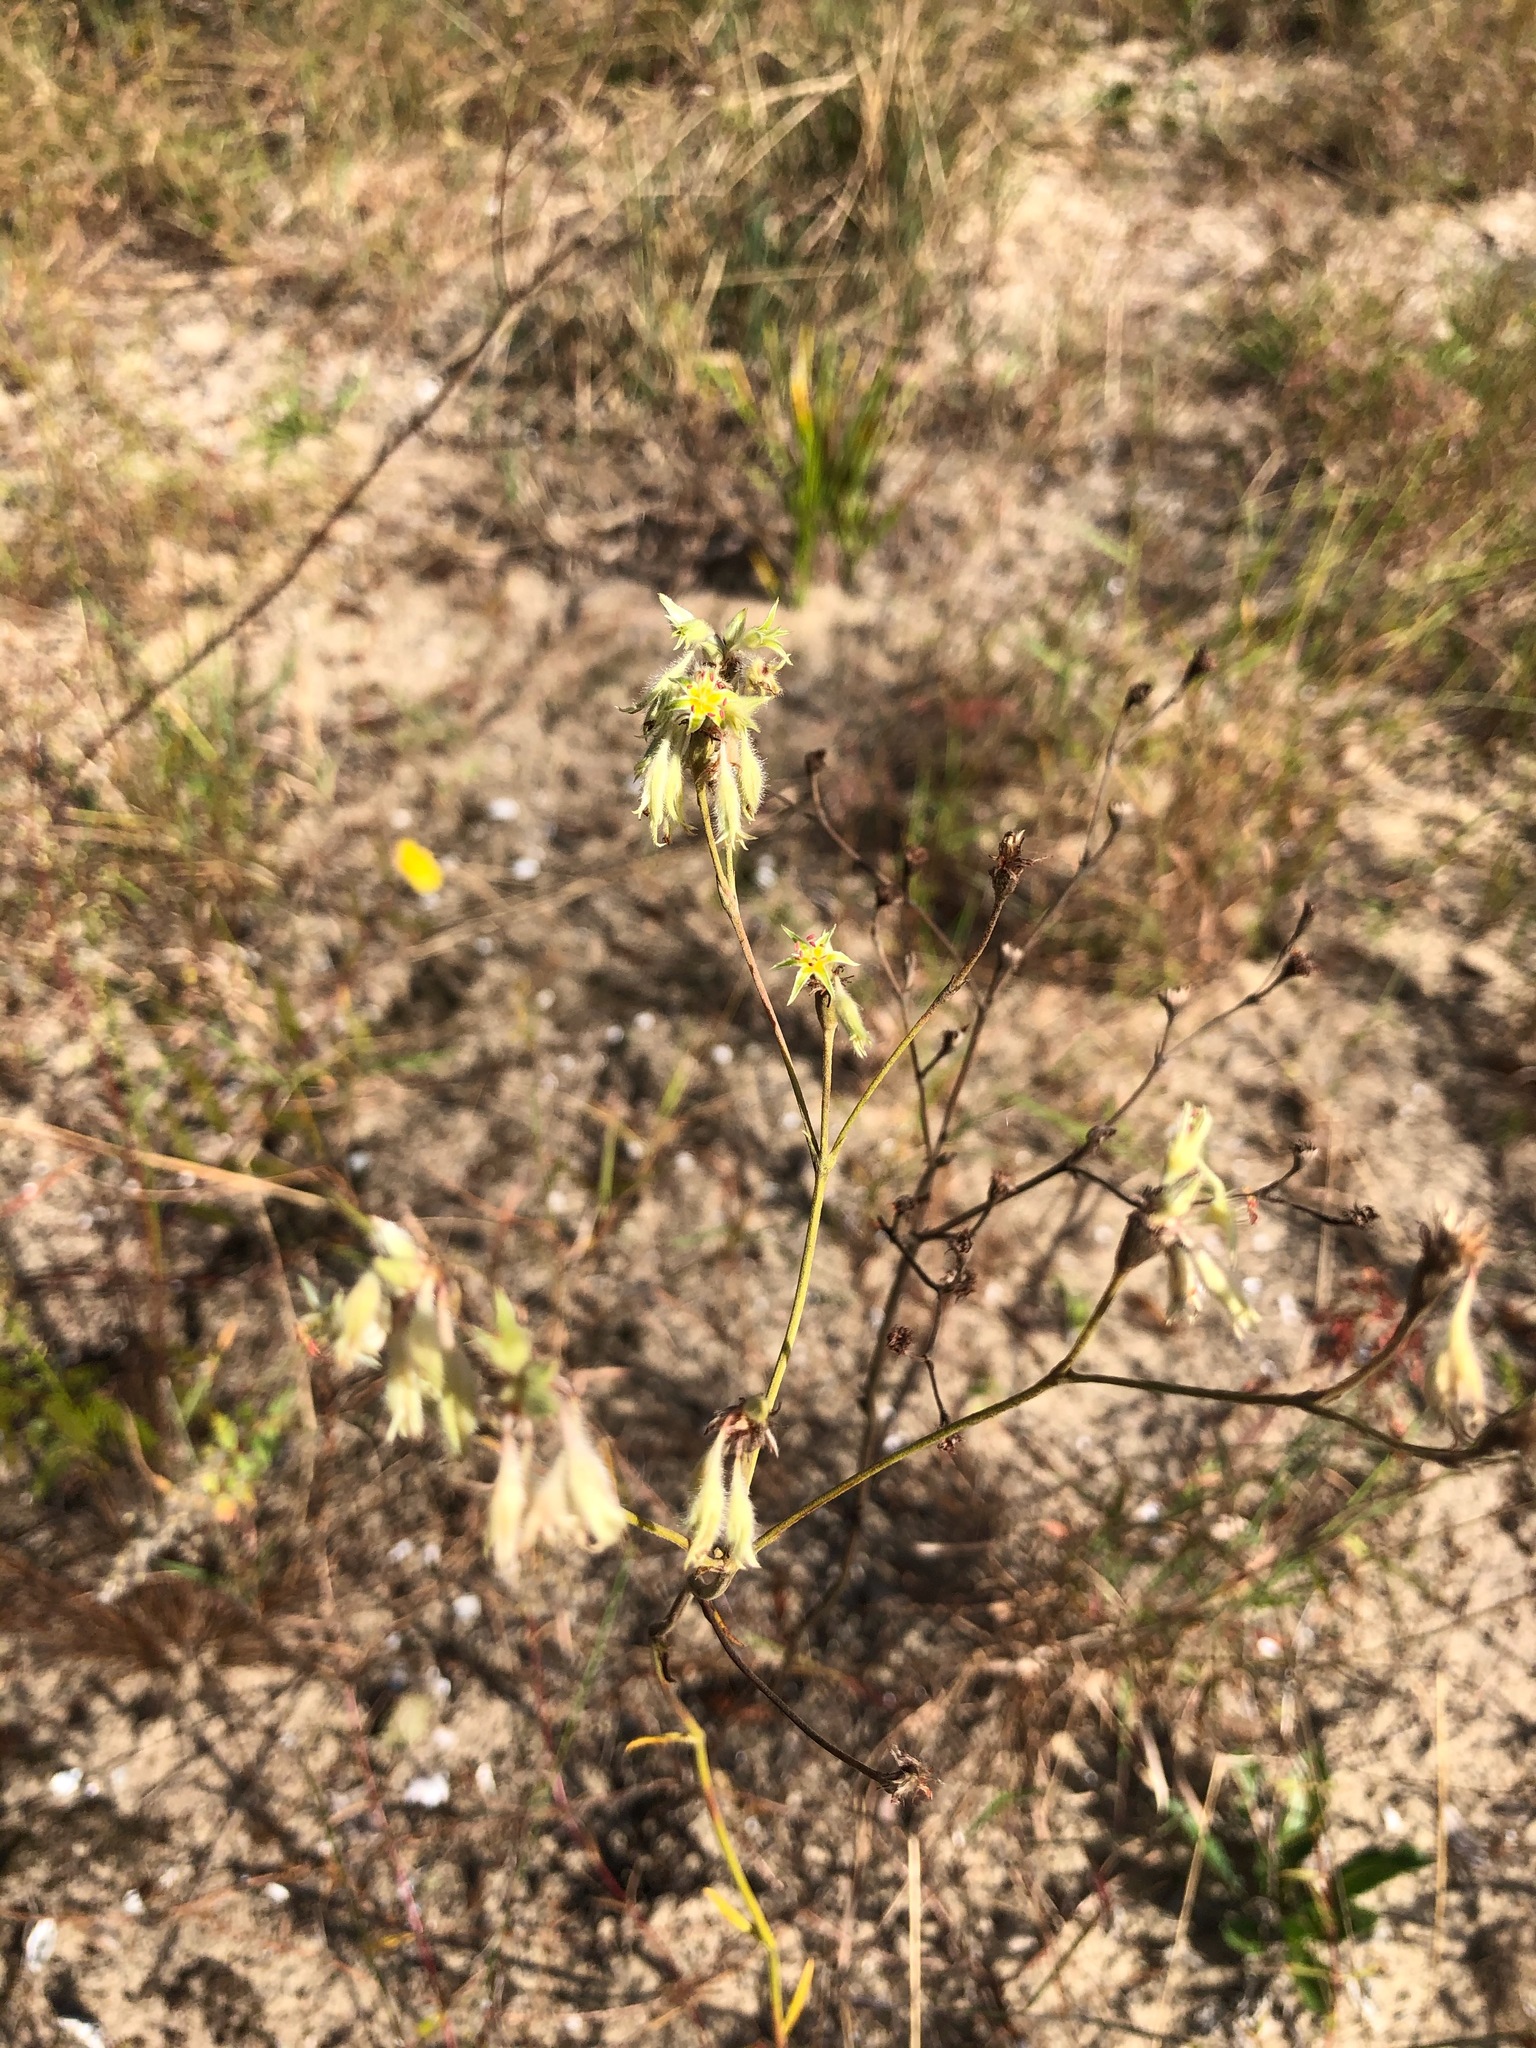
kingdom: Plantae
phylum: Tracheophyta
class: Magnoliopsida
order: Caryophyllales
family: Polygonaceae
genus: Eriogonum
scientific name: Eriogonum longifolium
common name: Longleaf wild buckwheat
